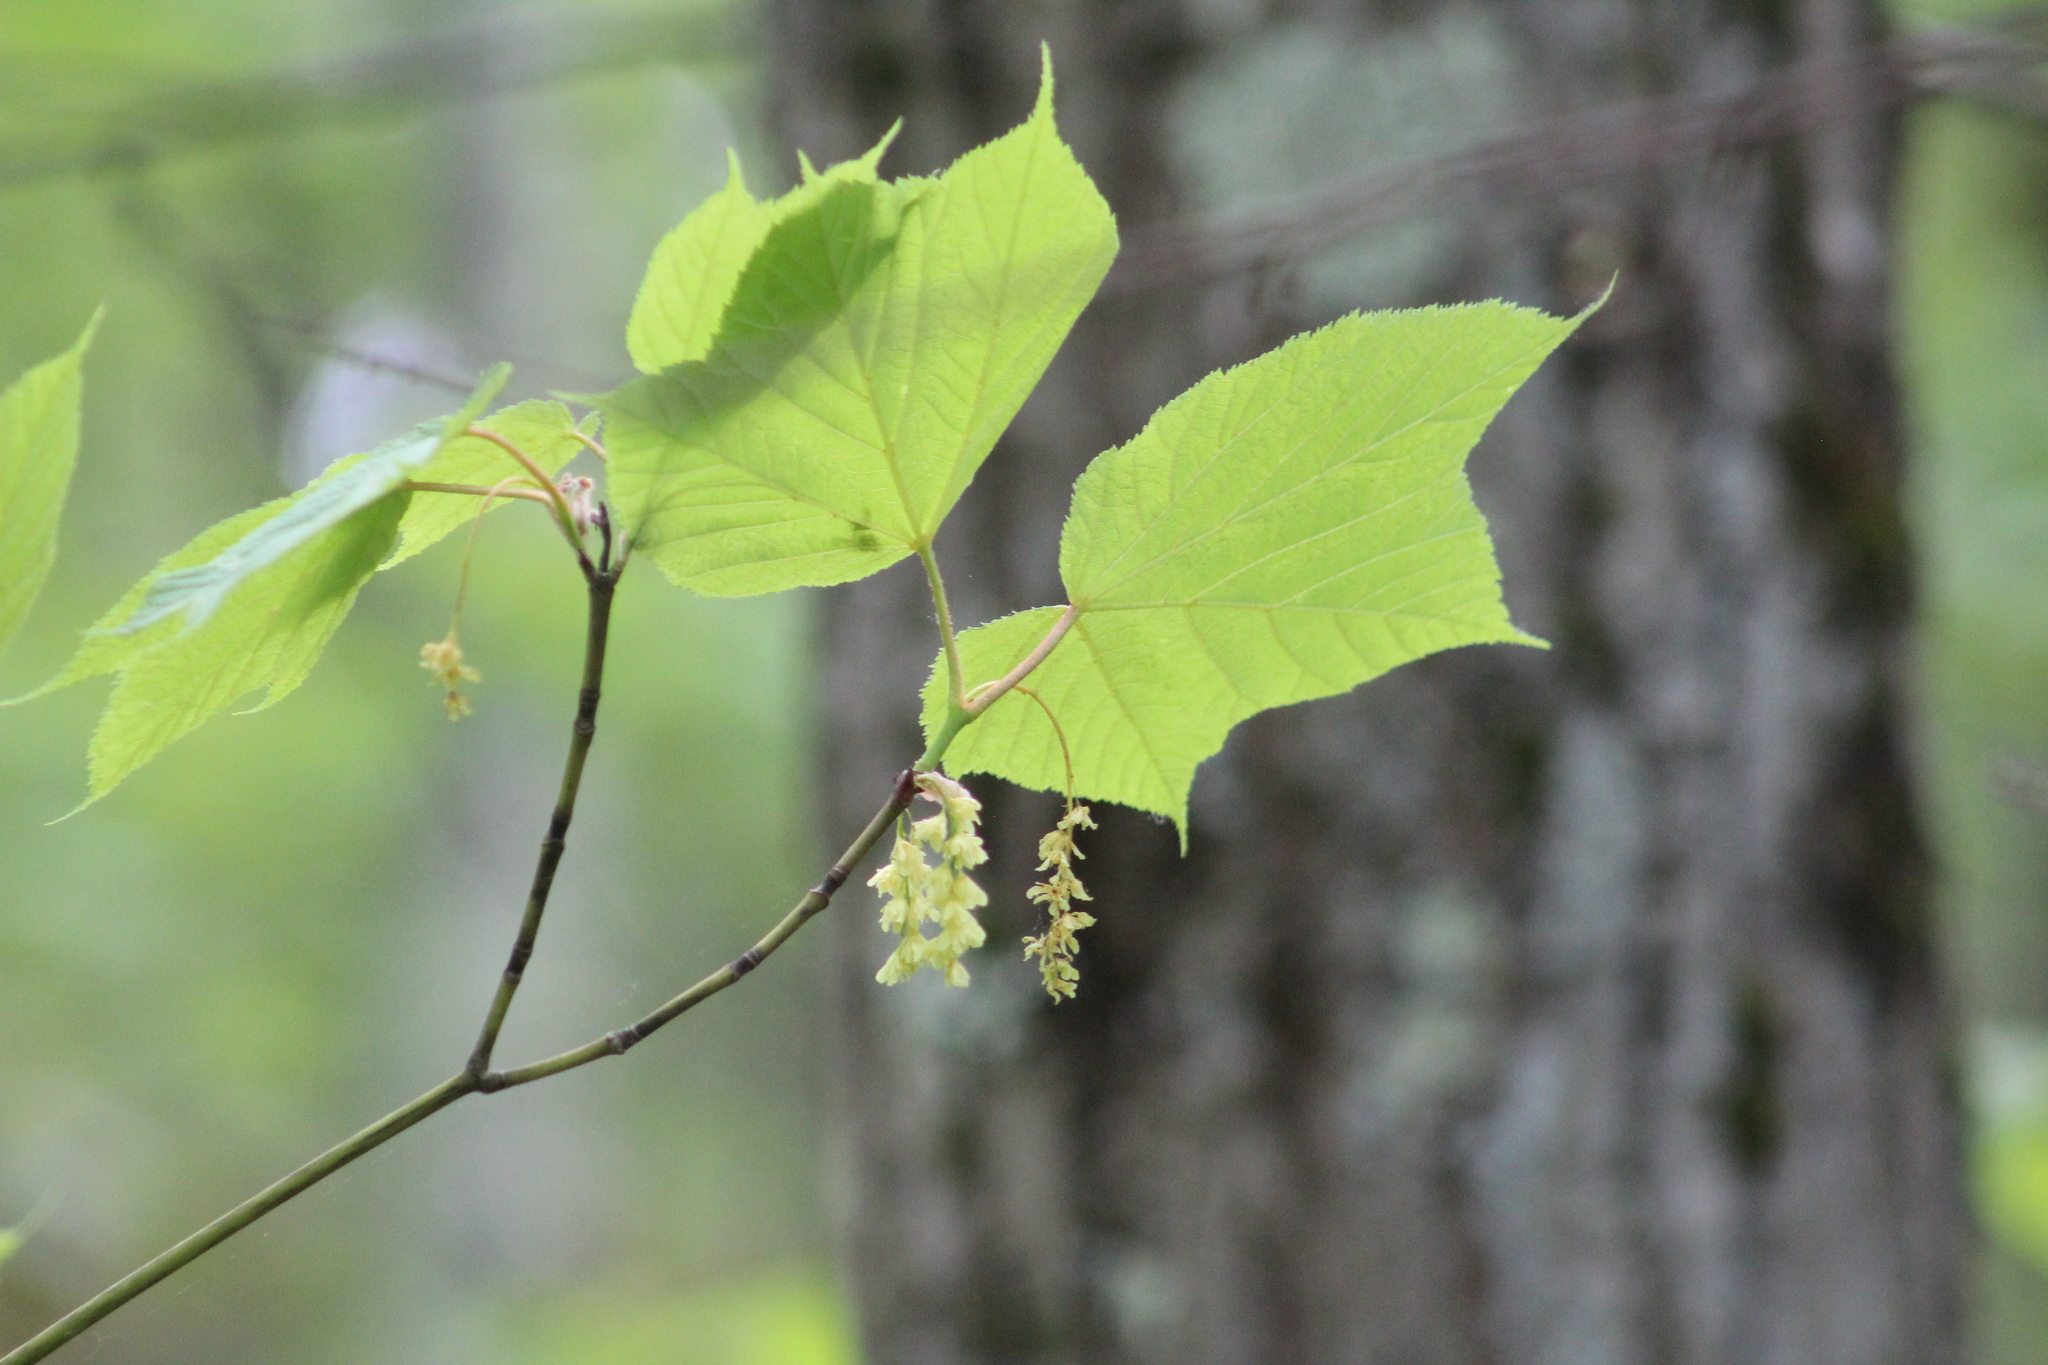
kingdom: Plantae
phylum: Tracheophyta
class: Magnoliopsida
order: Sapindales
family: Sapindaceae
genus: Acer
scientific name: Acer pensylvanicum
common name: Moosewood
